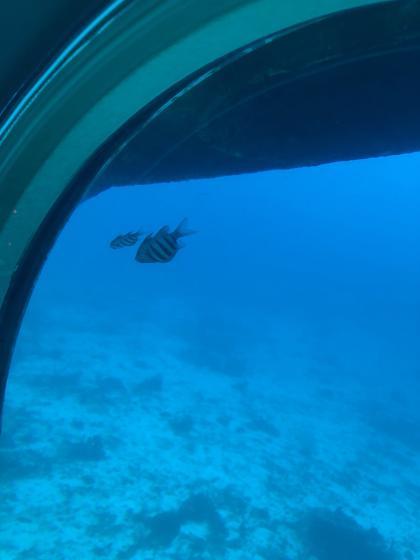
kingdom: Animalia
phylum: Chordata
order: Perciformes
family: Pomacentridae
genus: Abudefduf
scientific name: Abudefduf saxatilis
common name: Sergeant major
